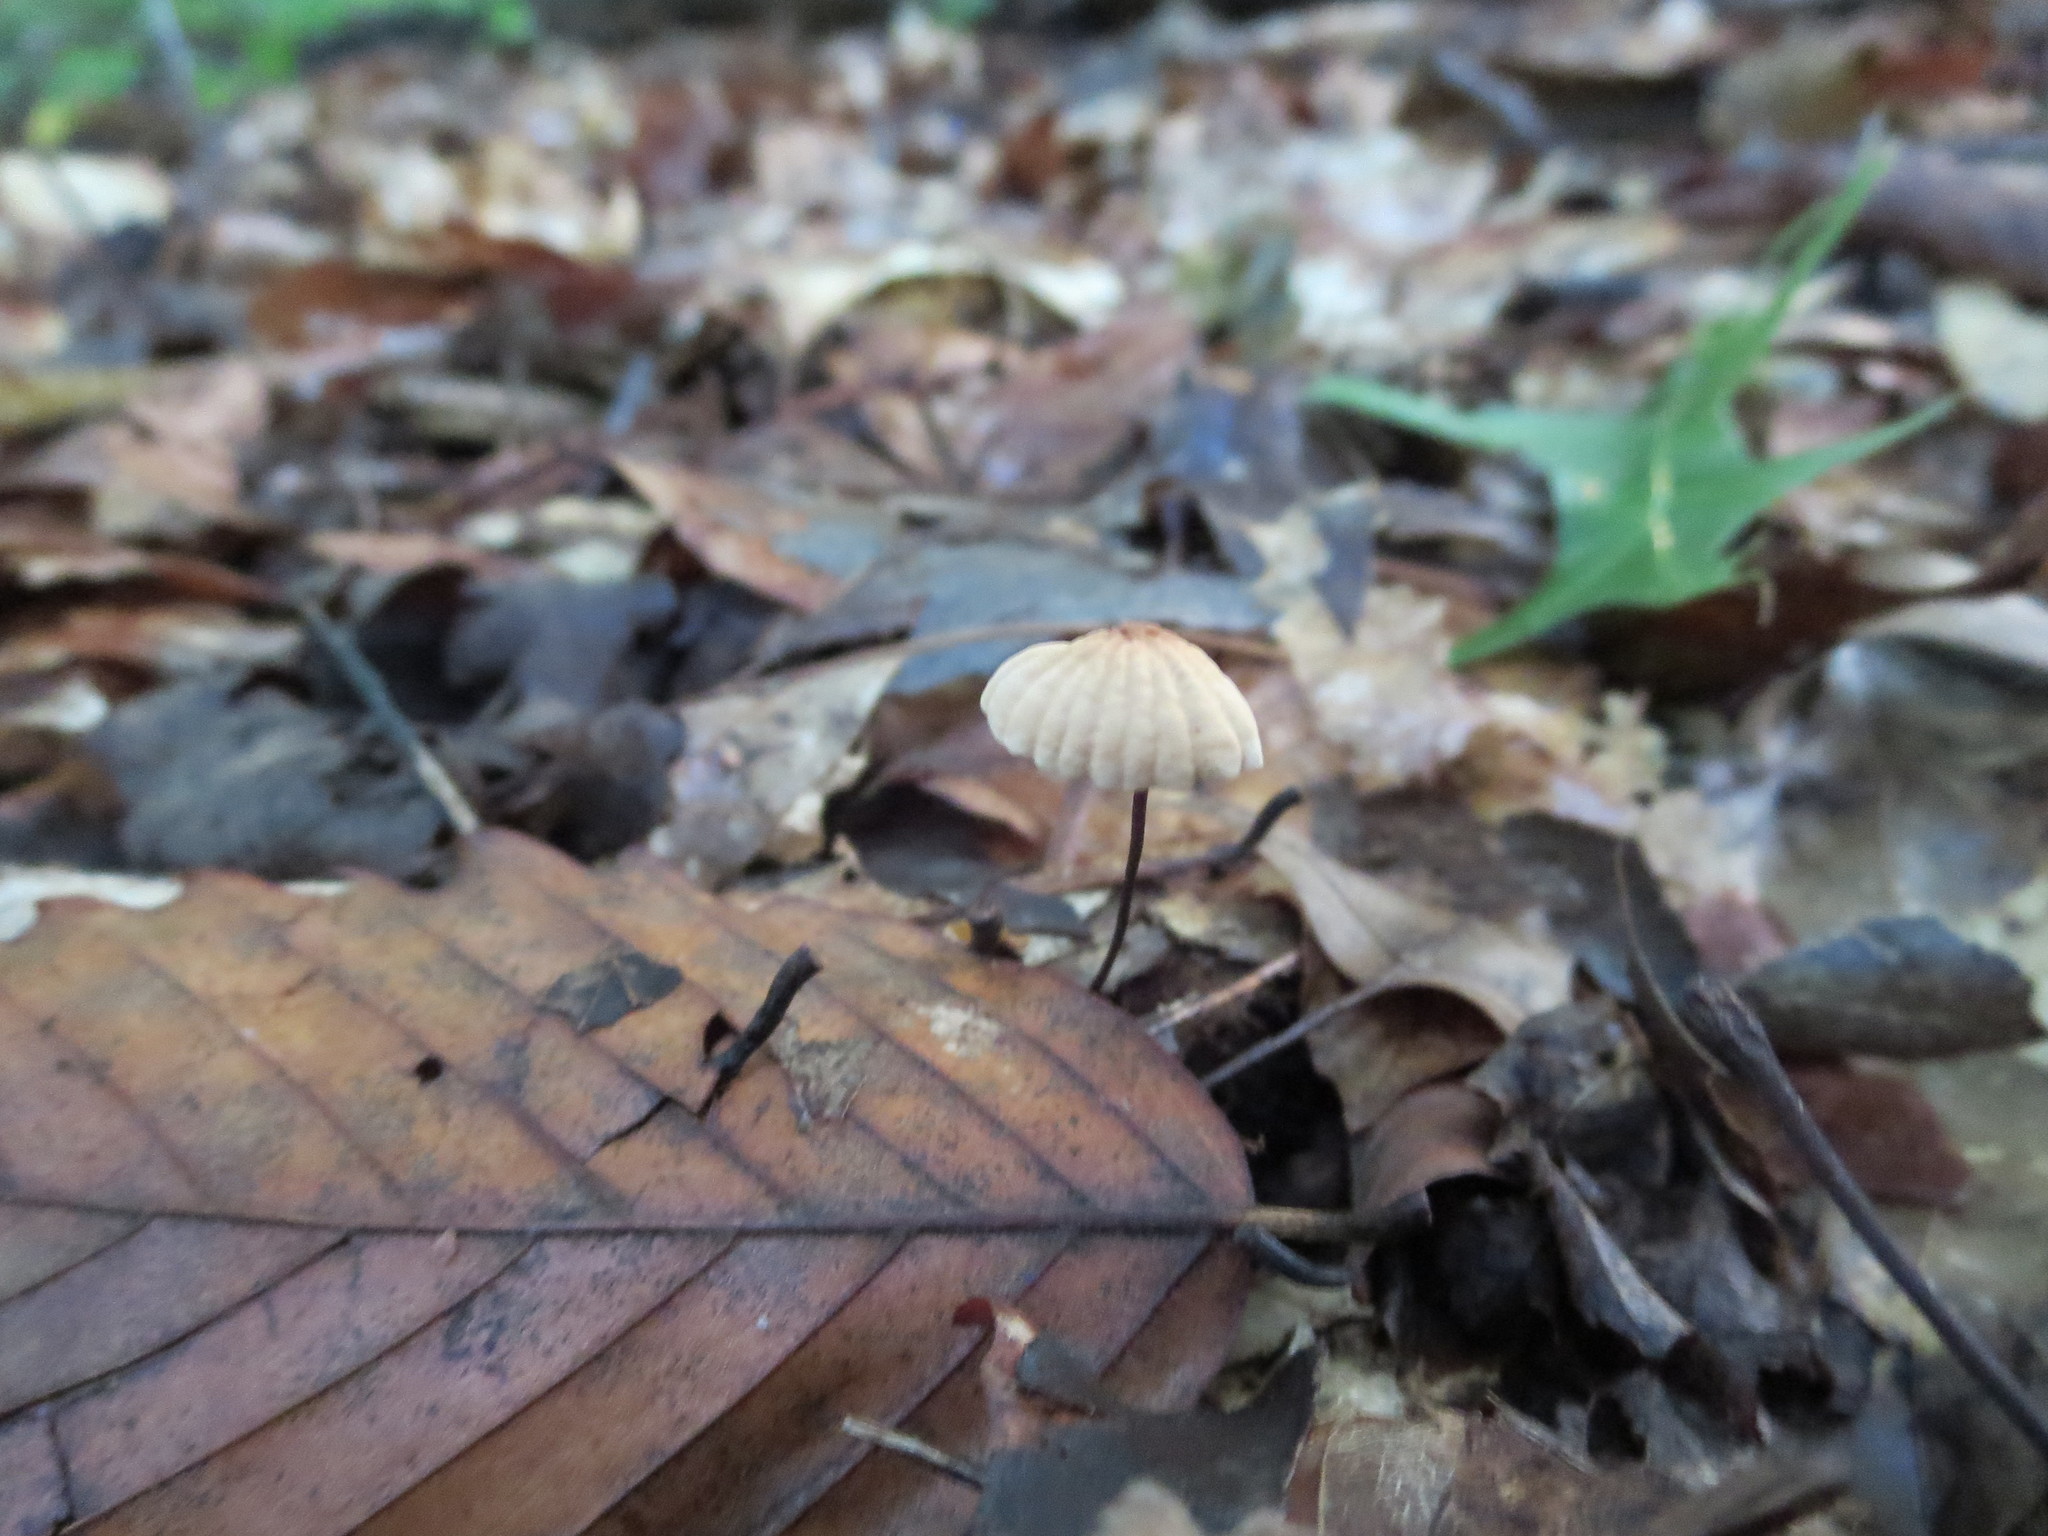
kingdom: Fungi
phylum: Basidiomycota
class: Agaricomycetes
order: Agaricales
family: Marasmiaceae
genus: Marasmius
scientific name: Marasmius capillaris
